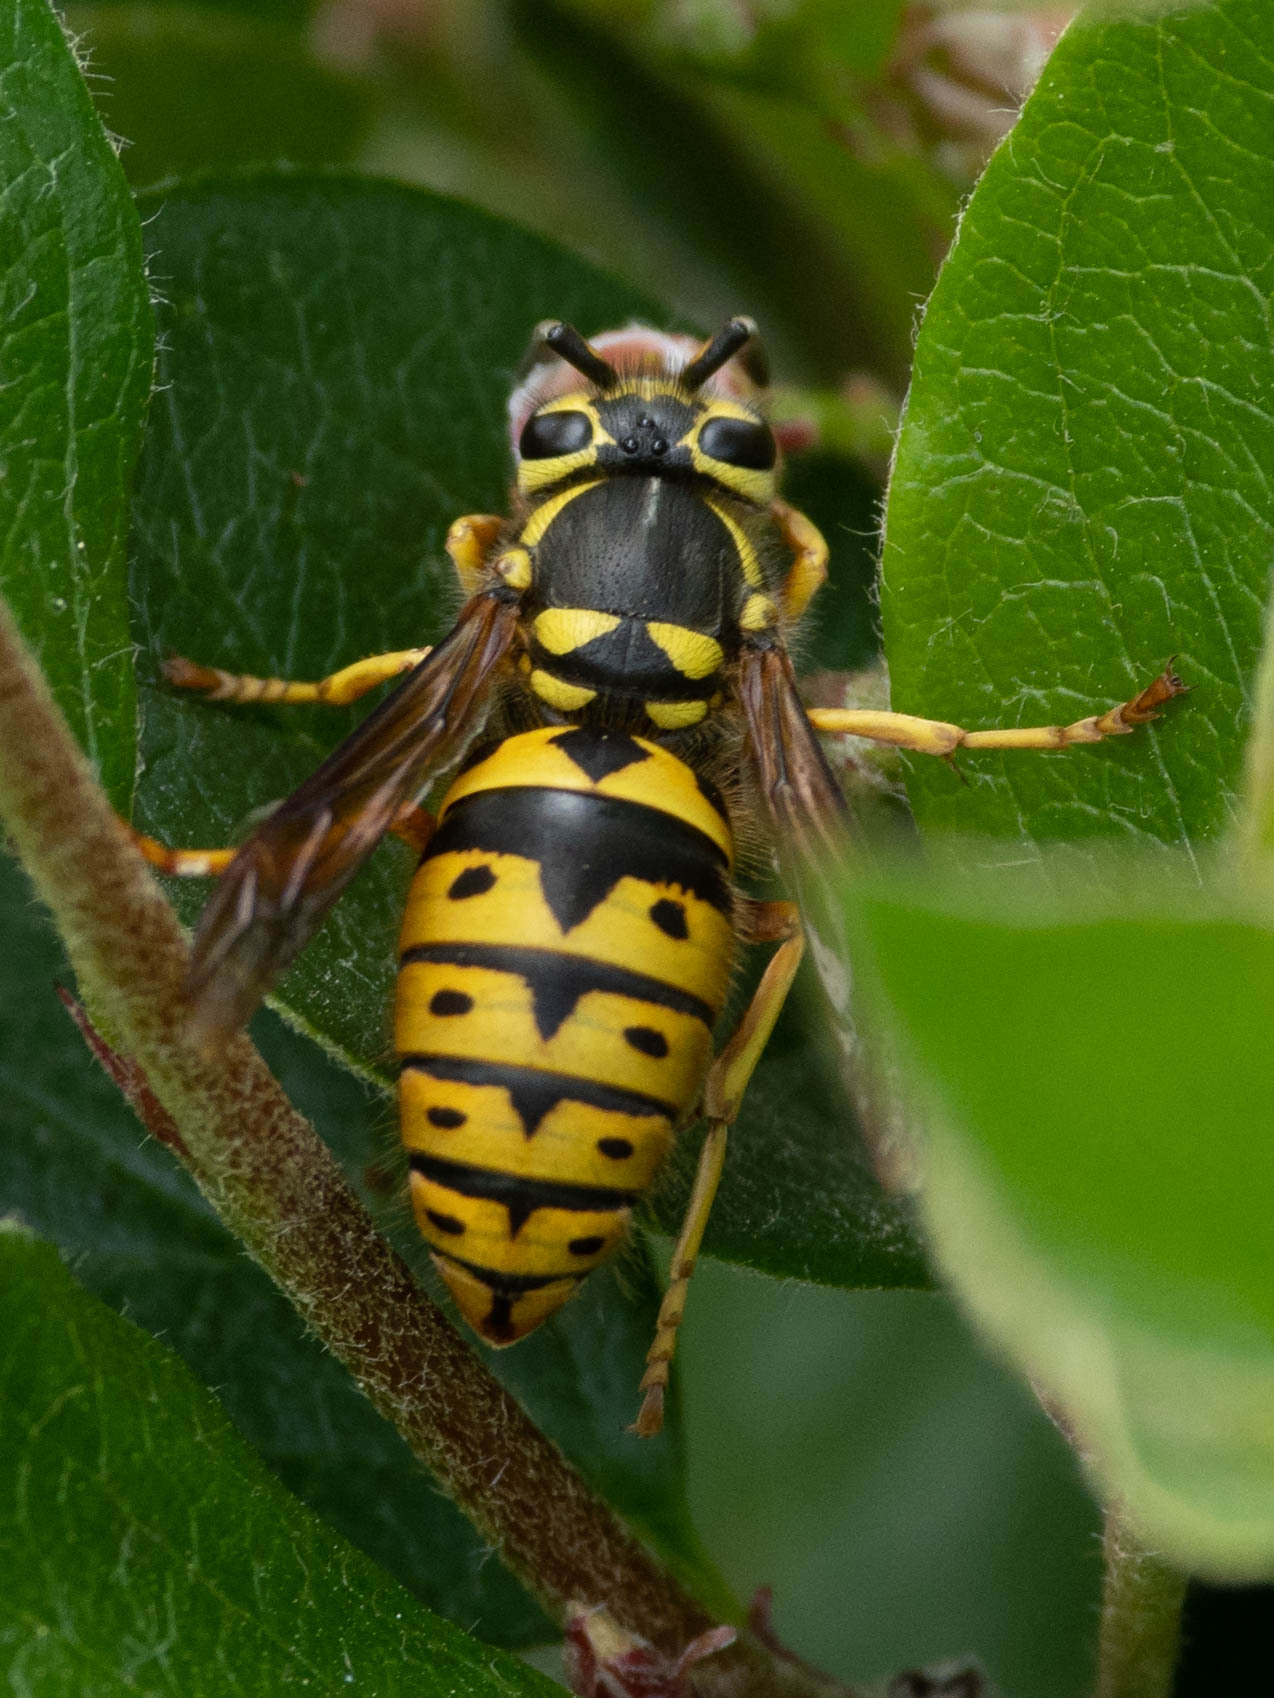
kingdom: Animalia
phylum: Arthropoda
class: Insecta
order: Hymenoptera
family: Vespidae
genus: Vespula
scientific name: Vespula pensylvanica
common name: Western yellowjacket
